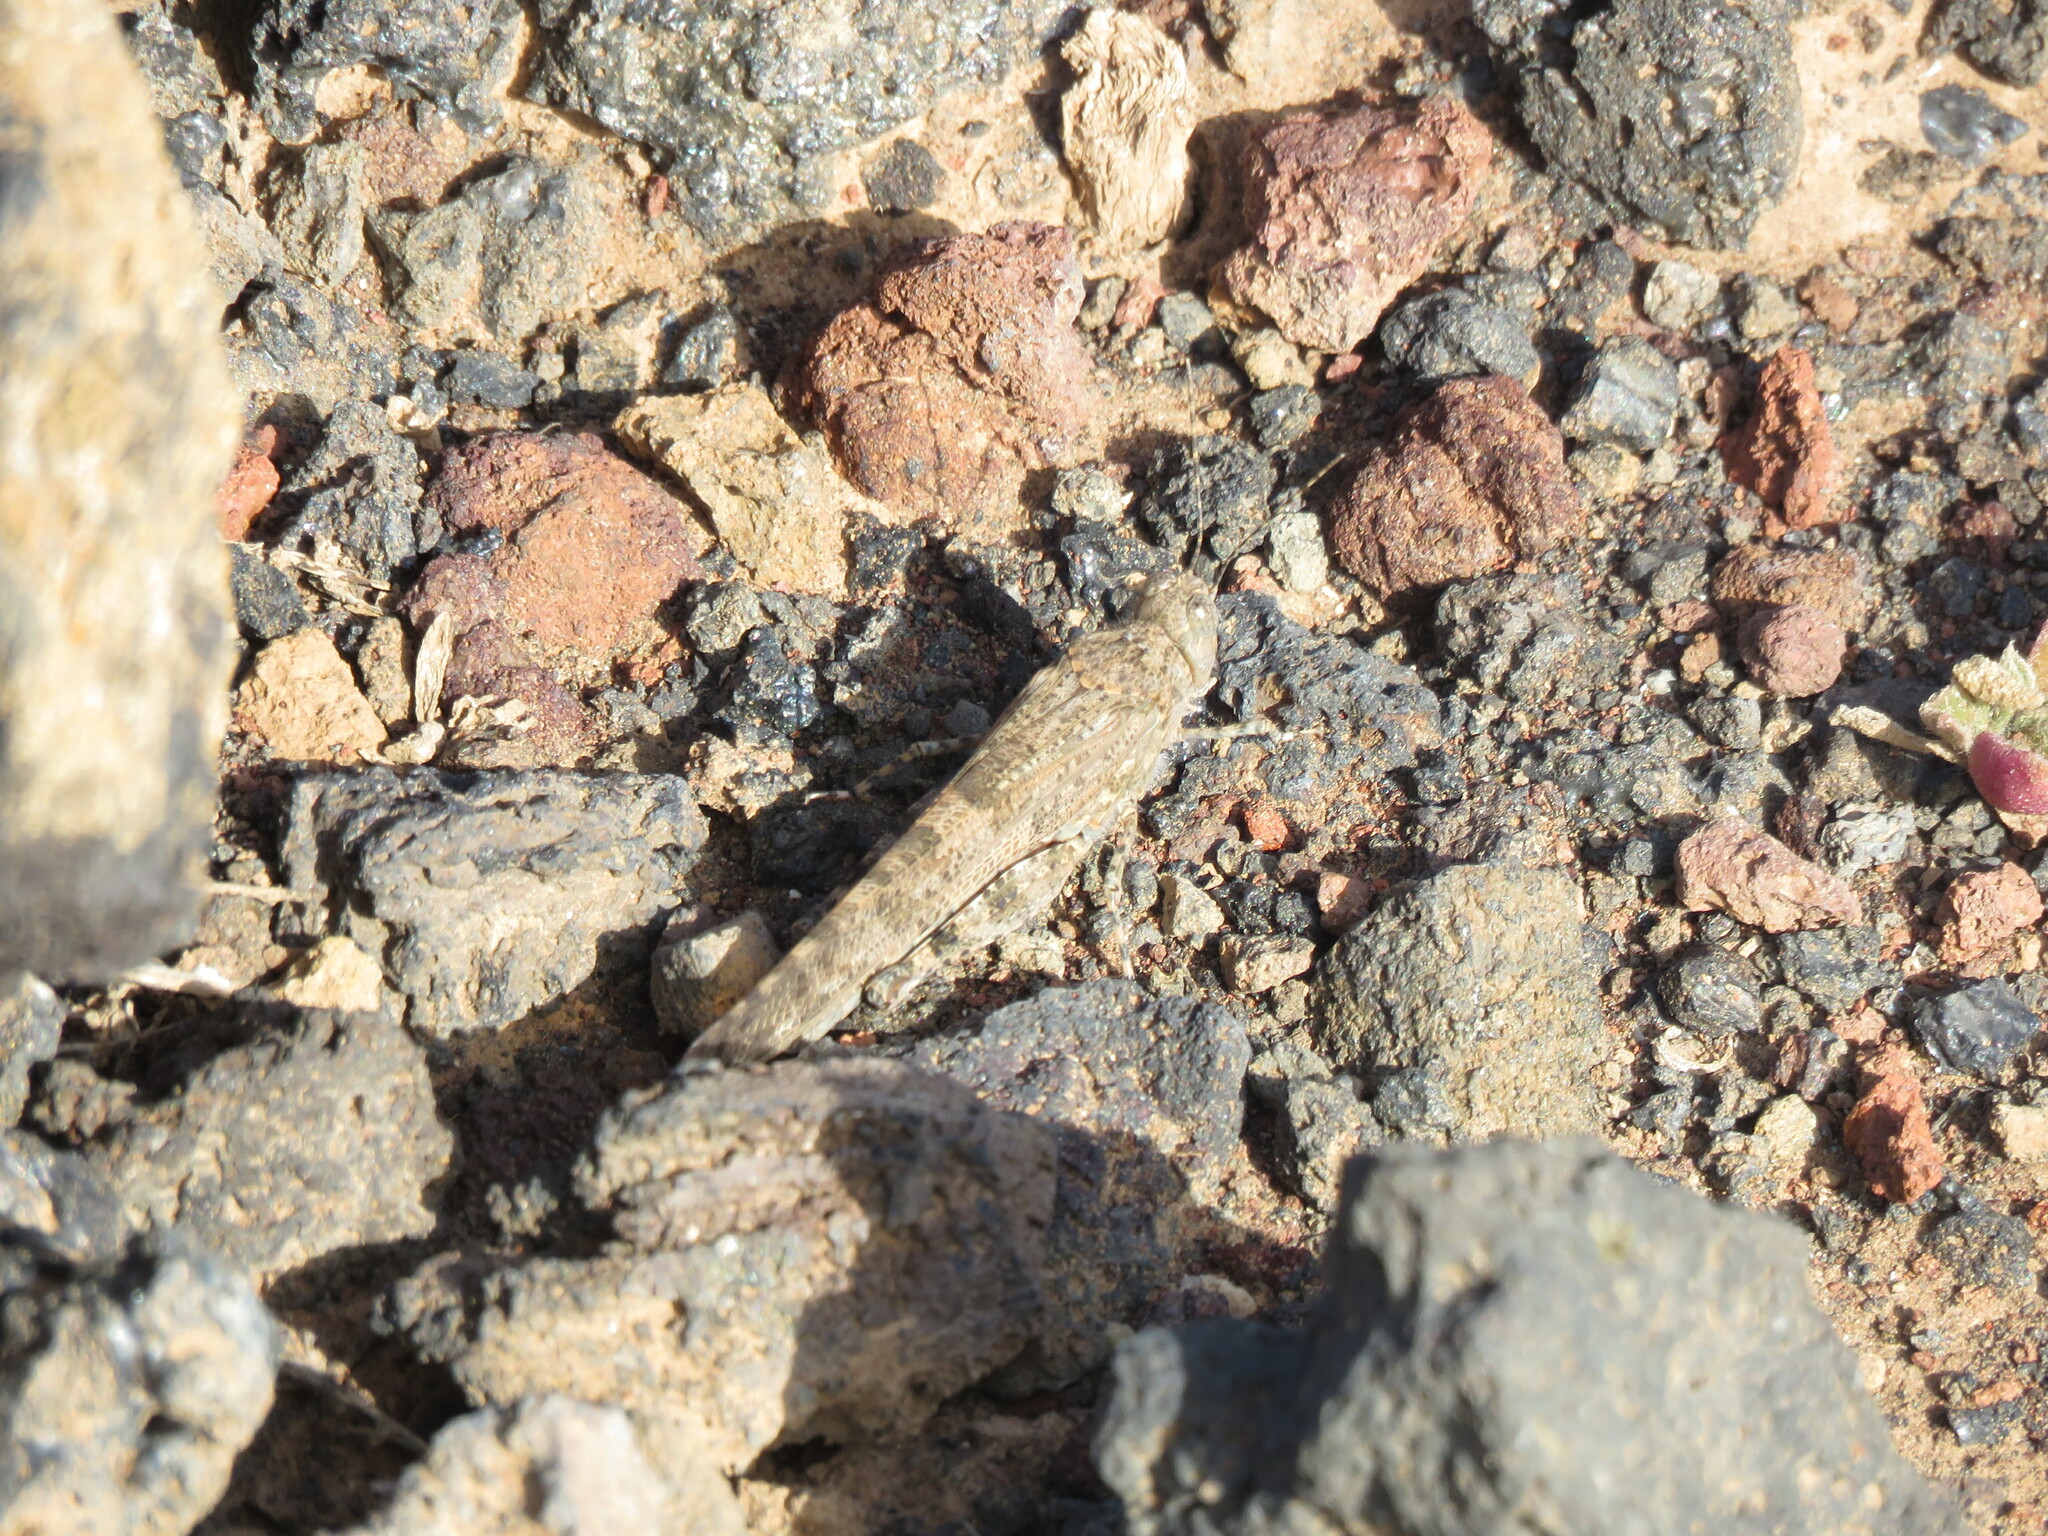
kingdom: Animalia
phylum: Arthropoda
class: Insecta
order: Orthoptera
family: Acrididae
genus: Sphingonotus
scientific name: Sphingonotus rubescens
